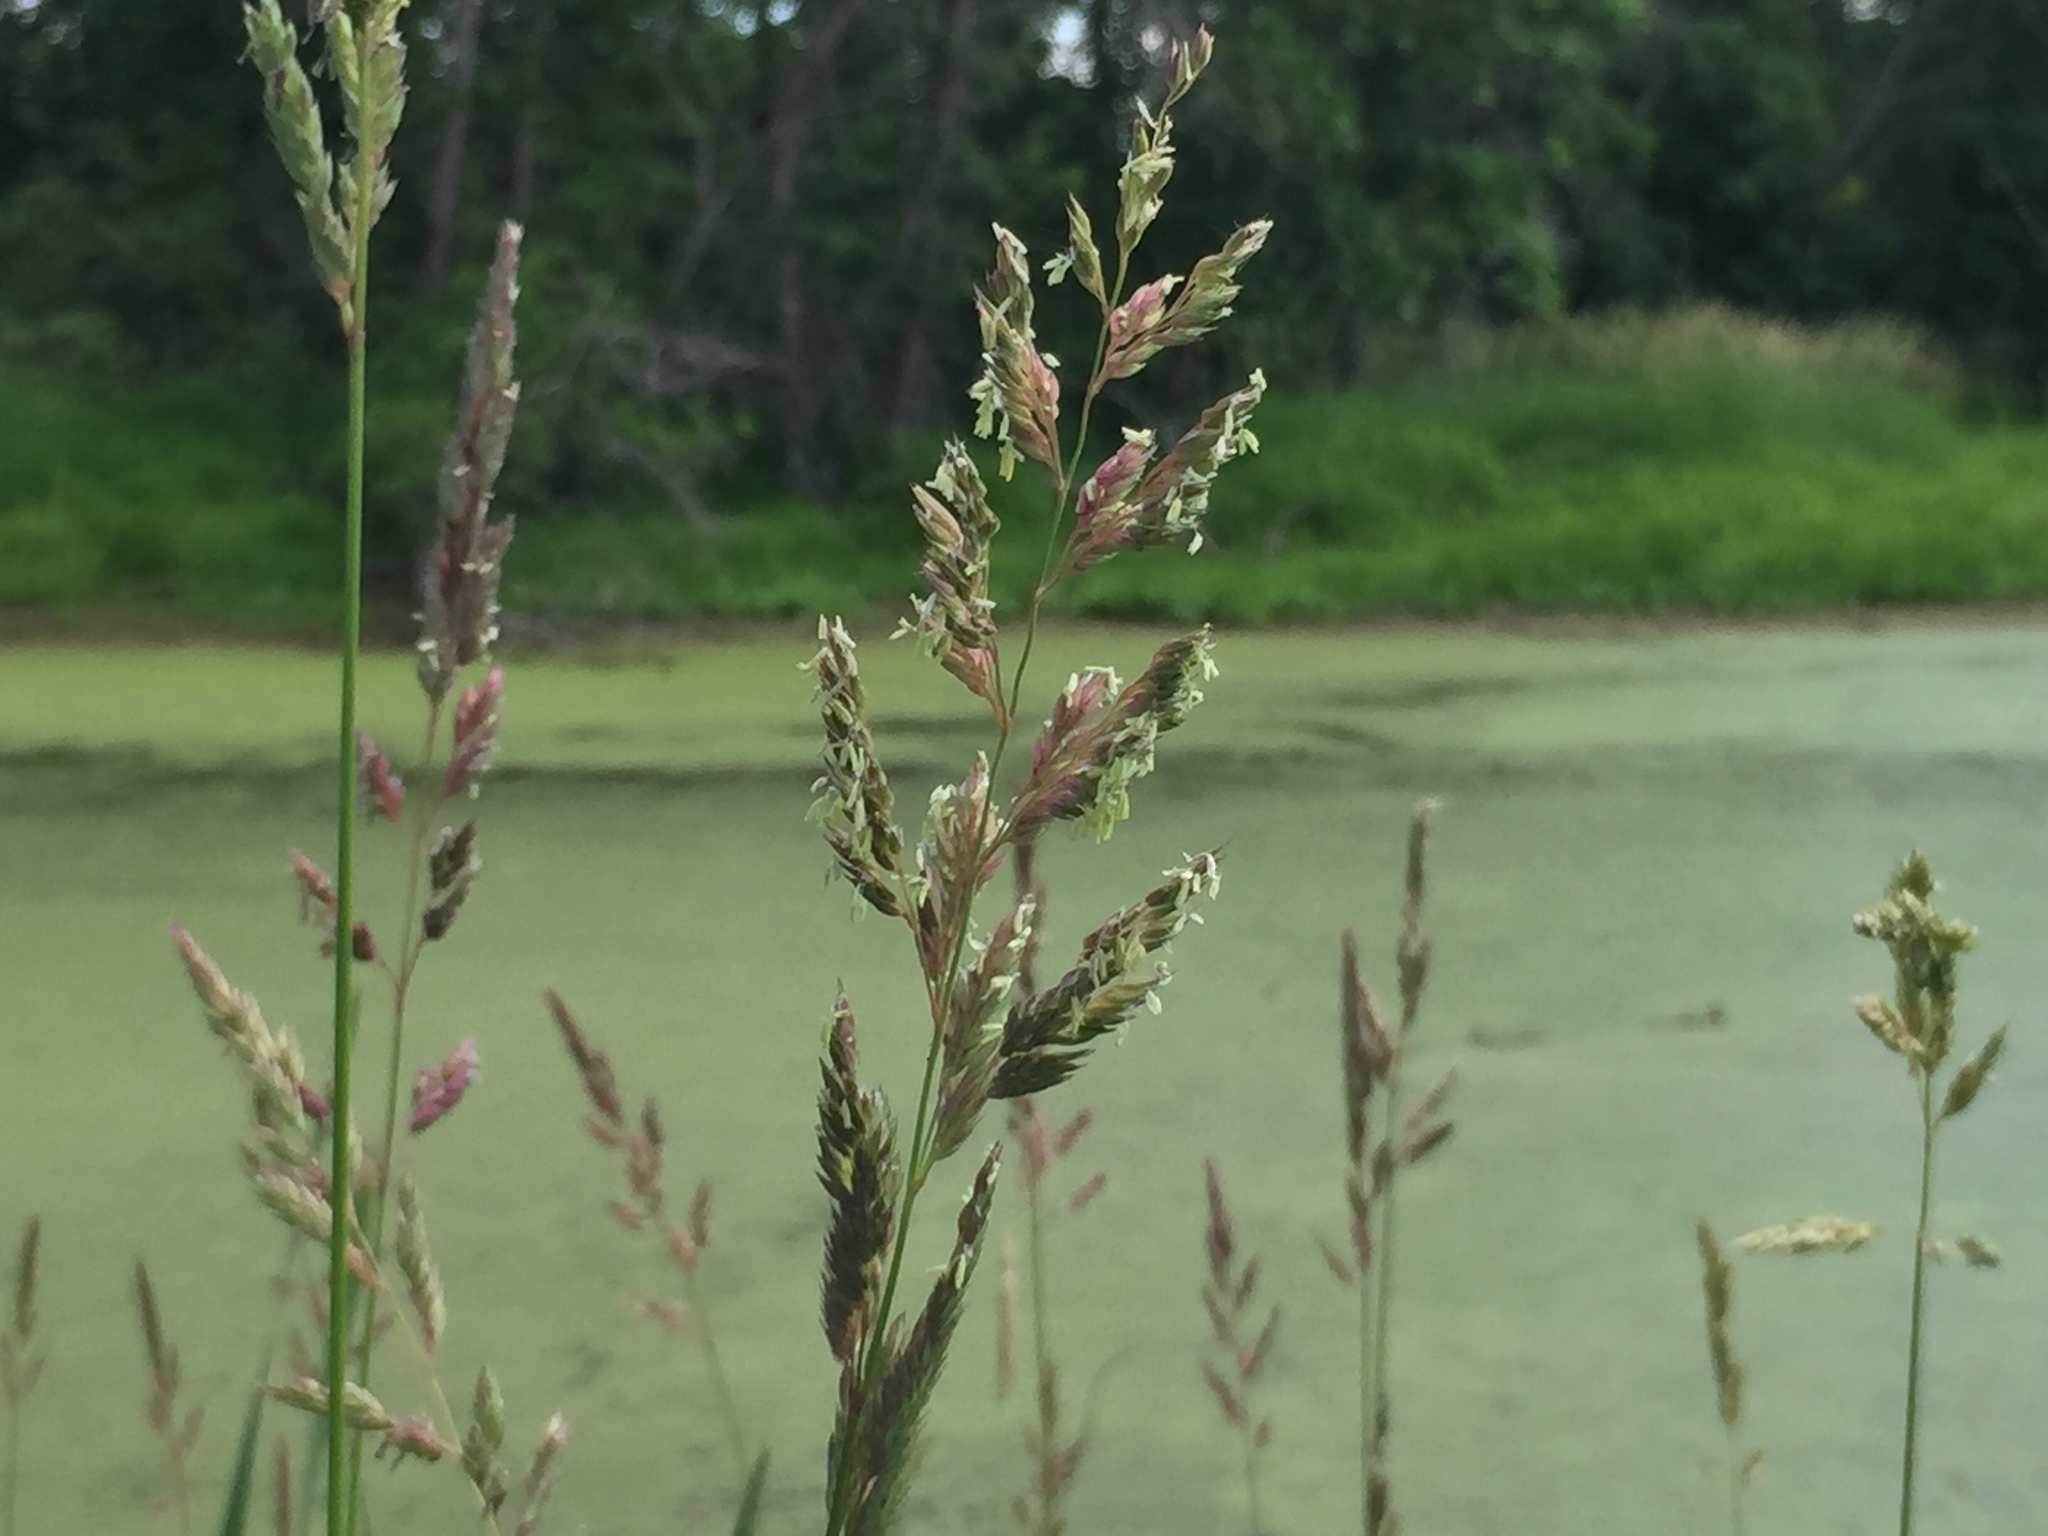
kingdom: Plantae
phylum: Tracheophyta
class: Liliopsida
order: Poales
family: Poaceae
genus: Phalaris
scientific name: Phalaris arundinacea
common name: Reed canary-grass
